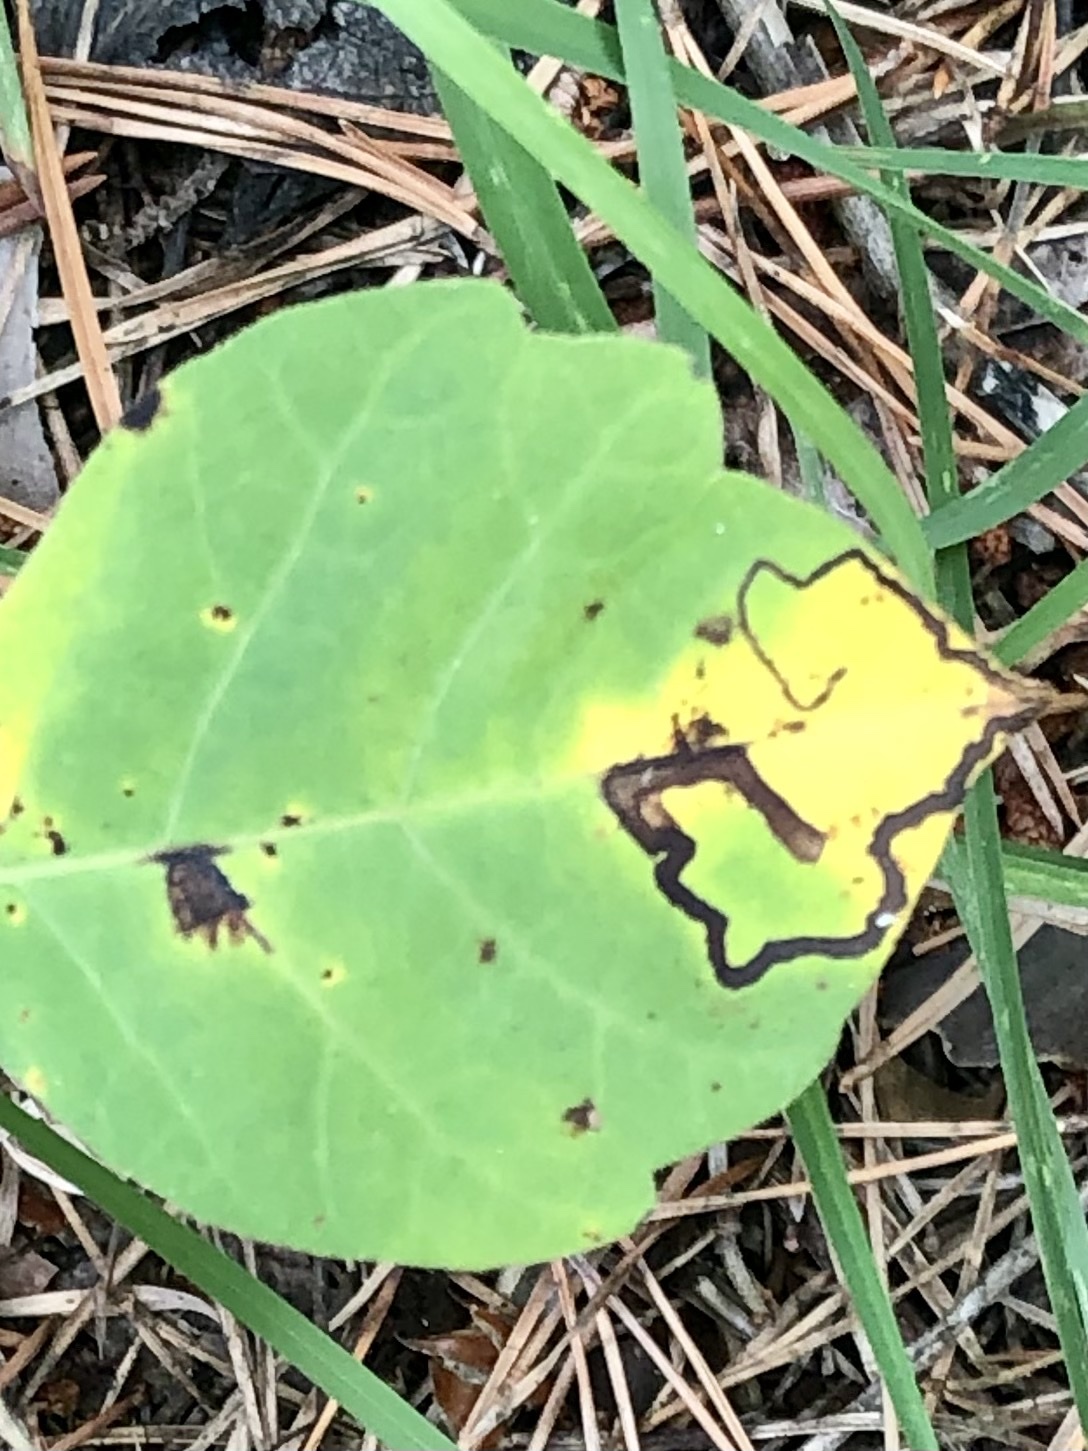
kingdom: Animalia
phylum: Arthropoda
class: Insecta
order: Lepidoptera
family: Nepticulidae
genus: Stigmella
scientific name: Stigmella rhoifoliella
